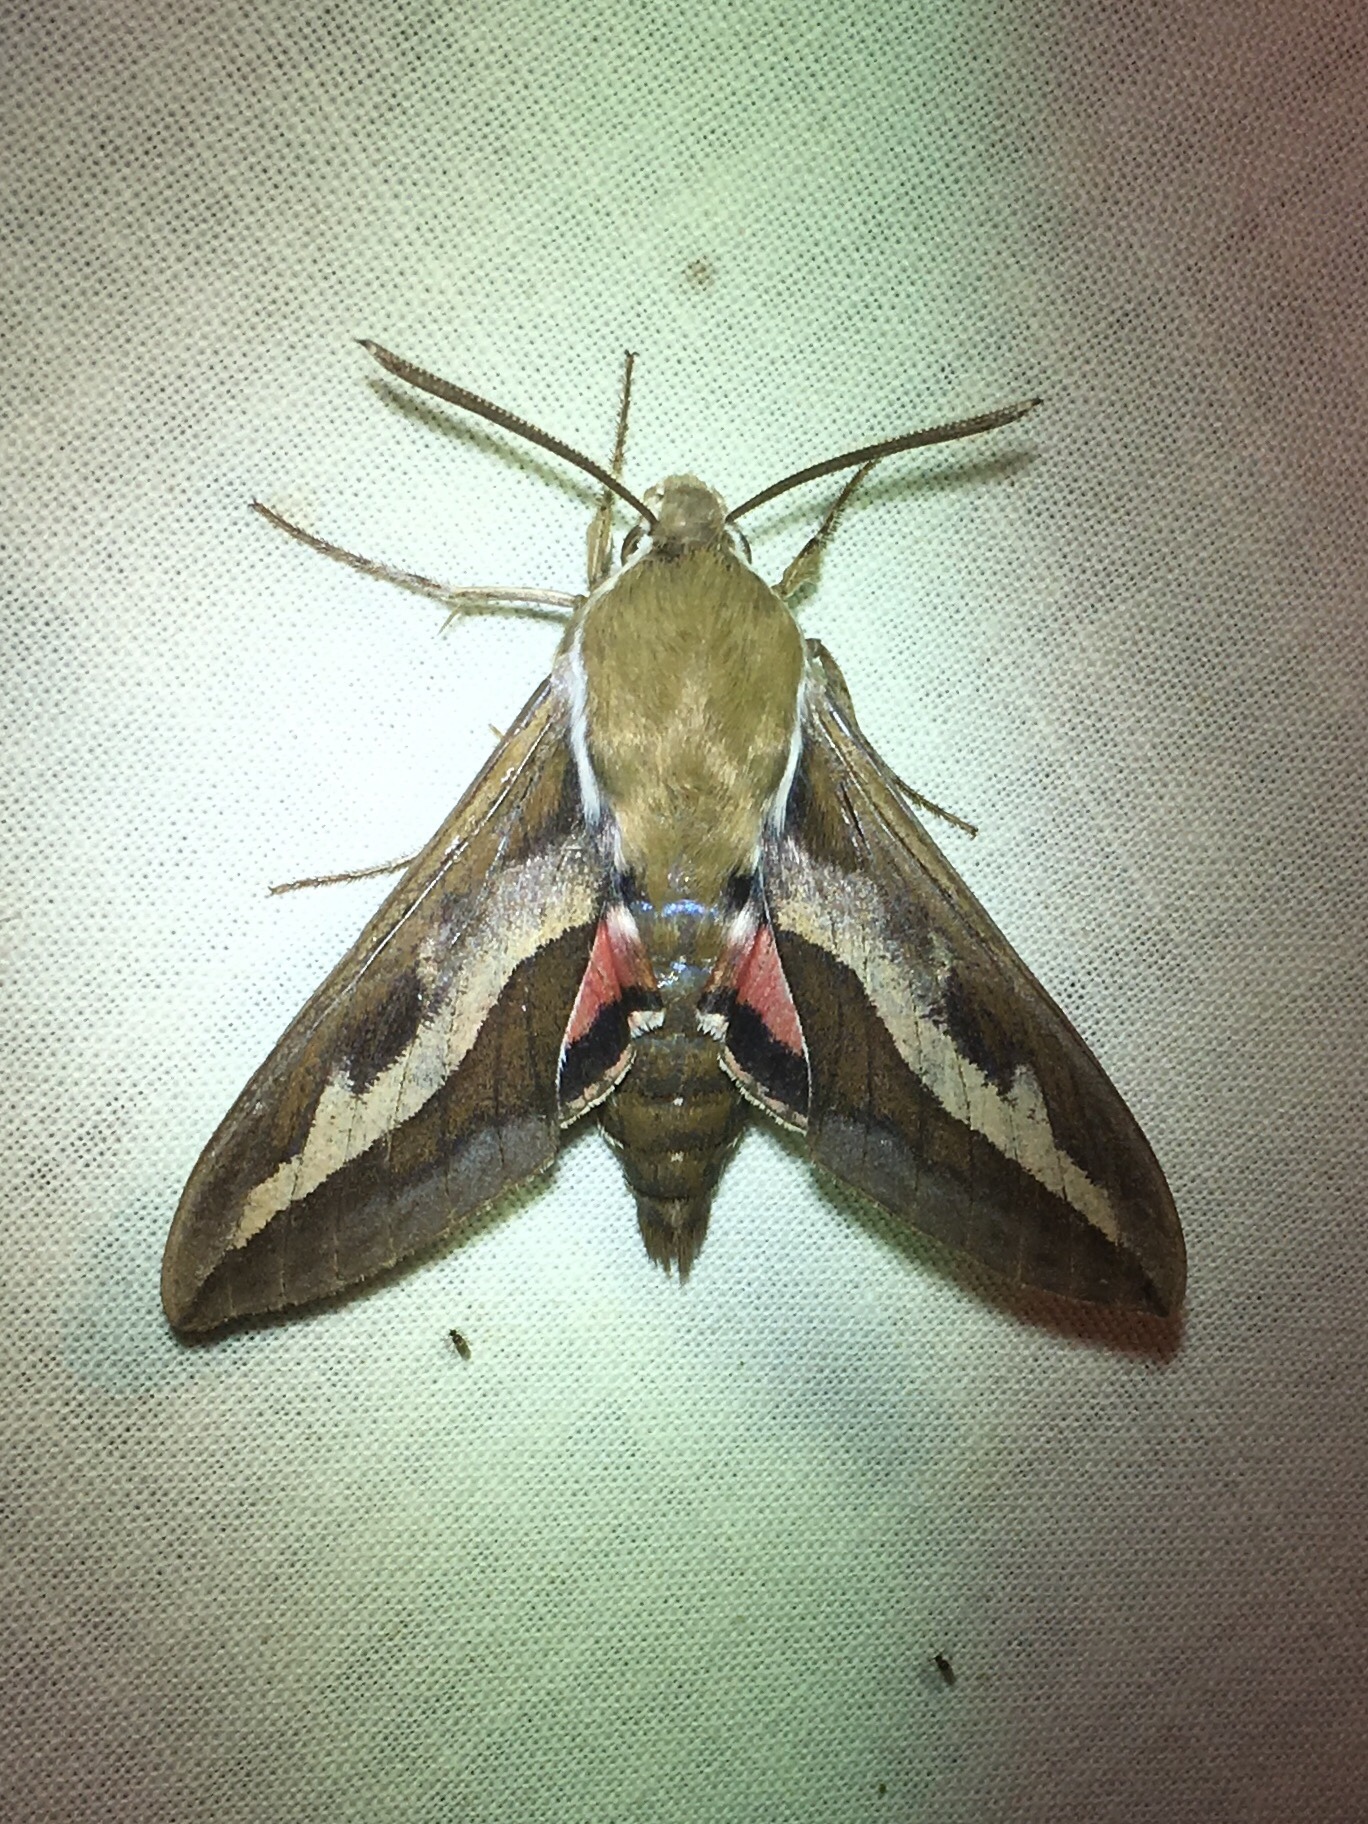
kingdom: Animalia
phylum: Arthropoda
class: Insecta
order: Lepidoptera
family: Sphingidae
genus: Hyles
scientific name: Hyles gallii
